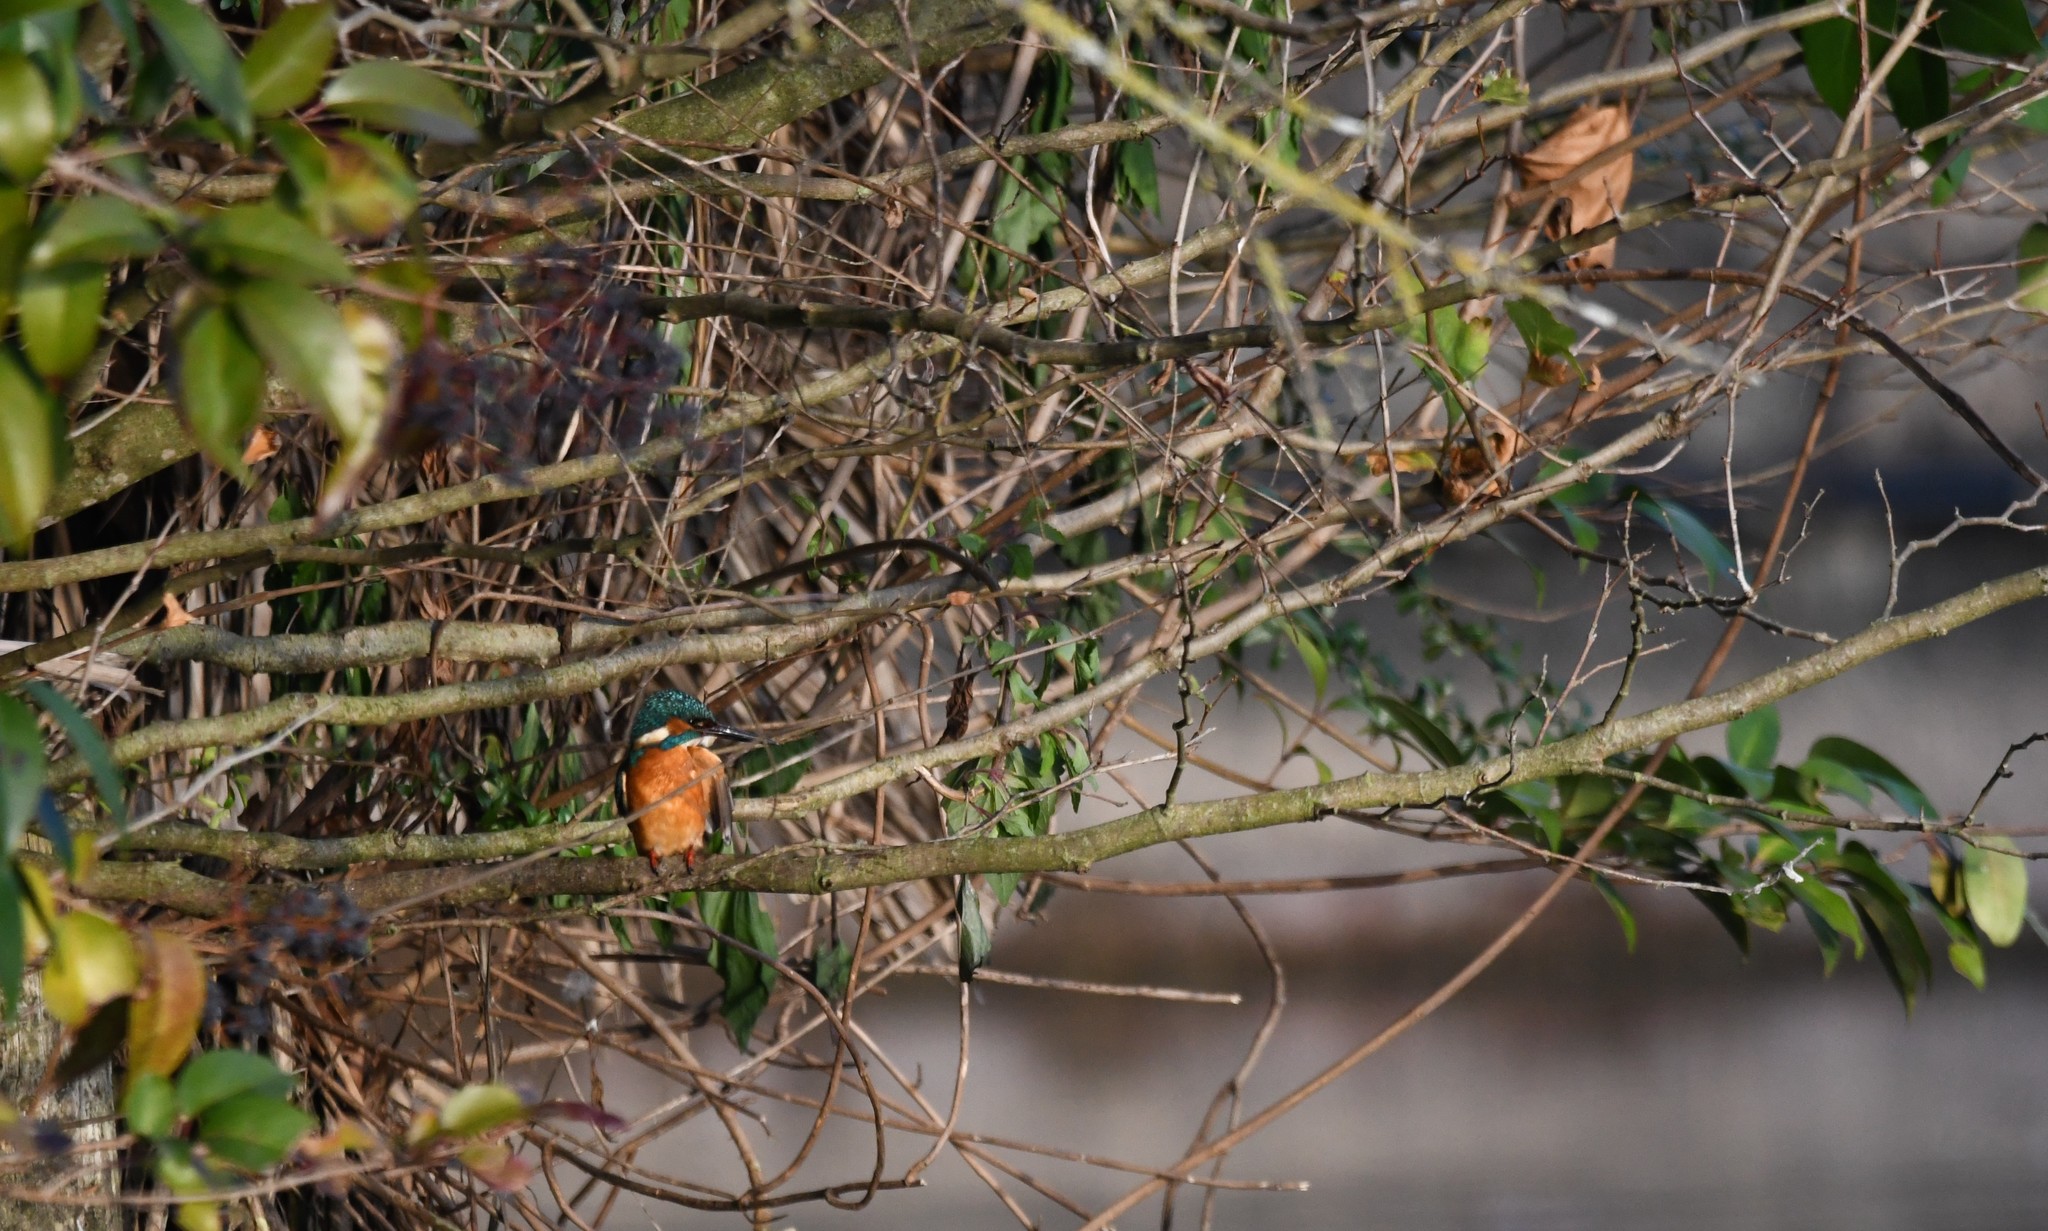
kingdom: Animalia
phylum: Chordata
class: Aves
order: Coraciiformes
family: Alcedinidae
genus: Alcedo
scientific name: Alcedo atthis
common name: Common kingfisher
